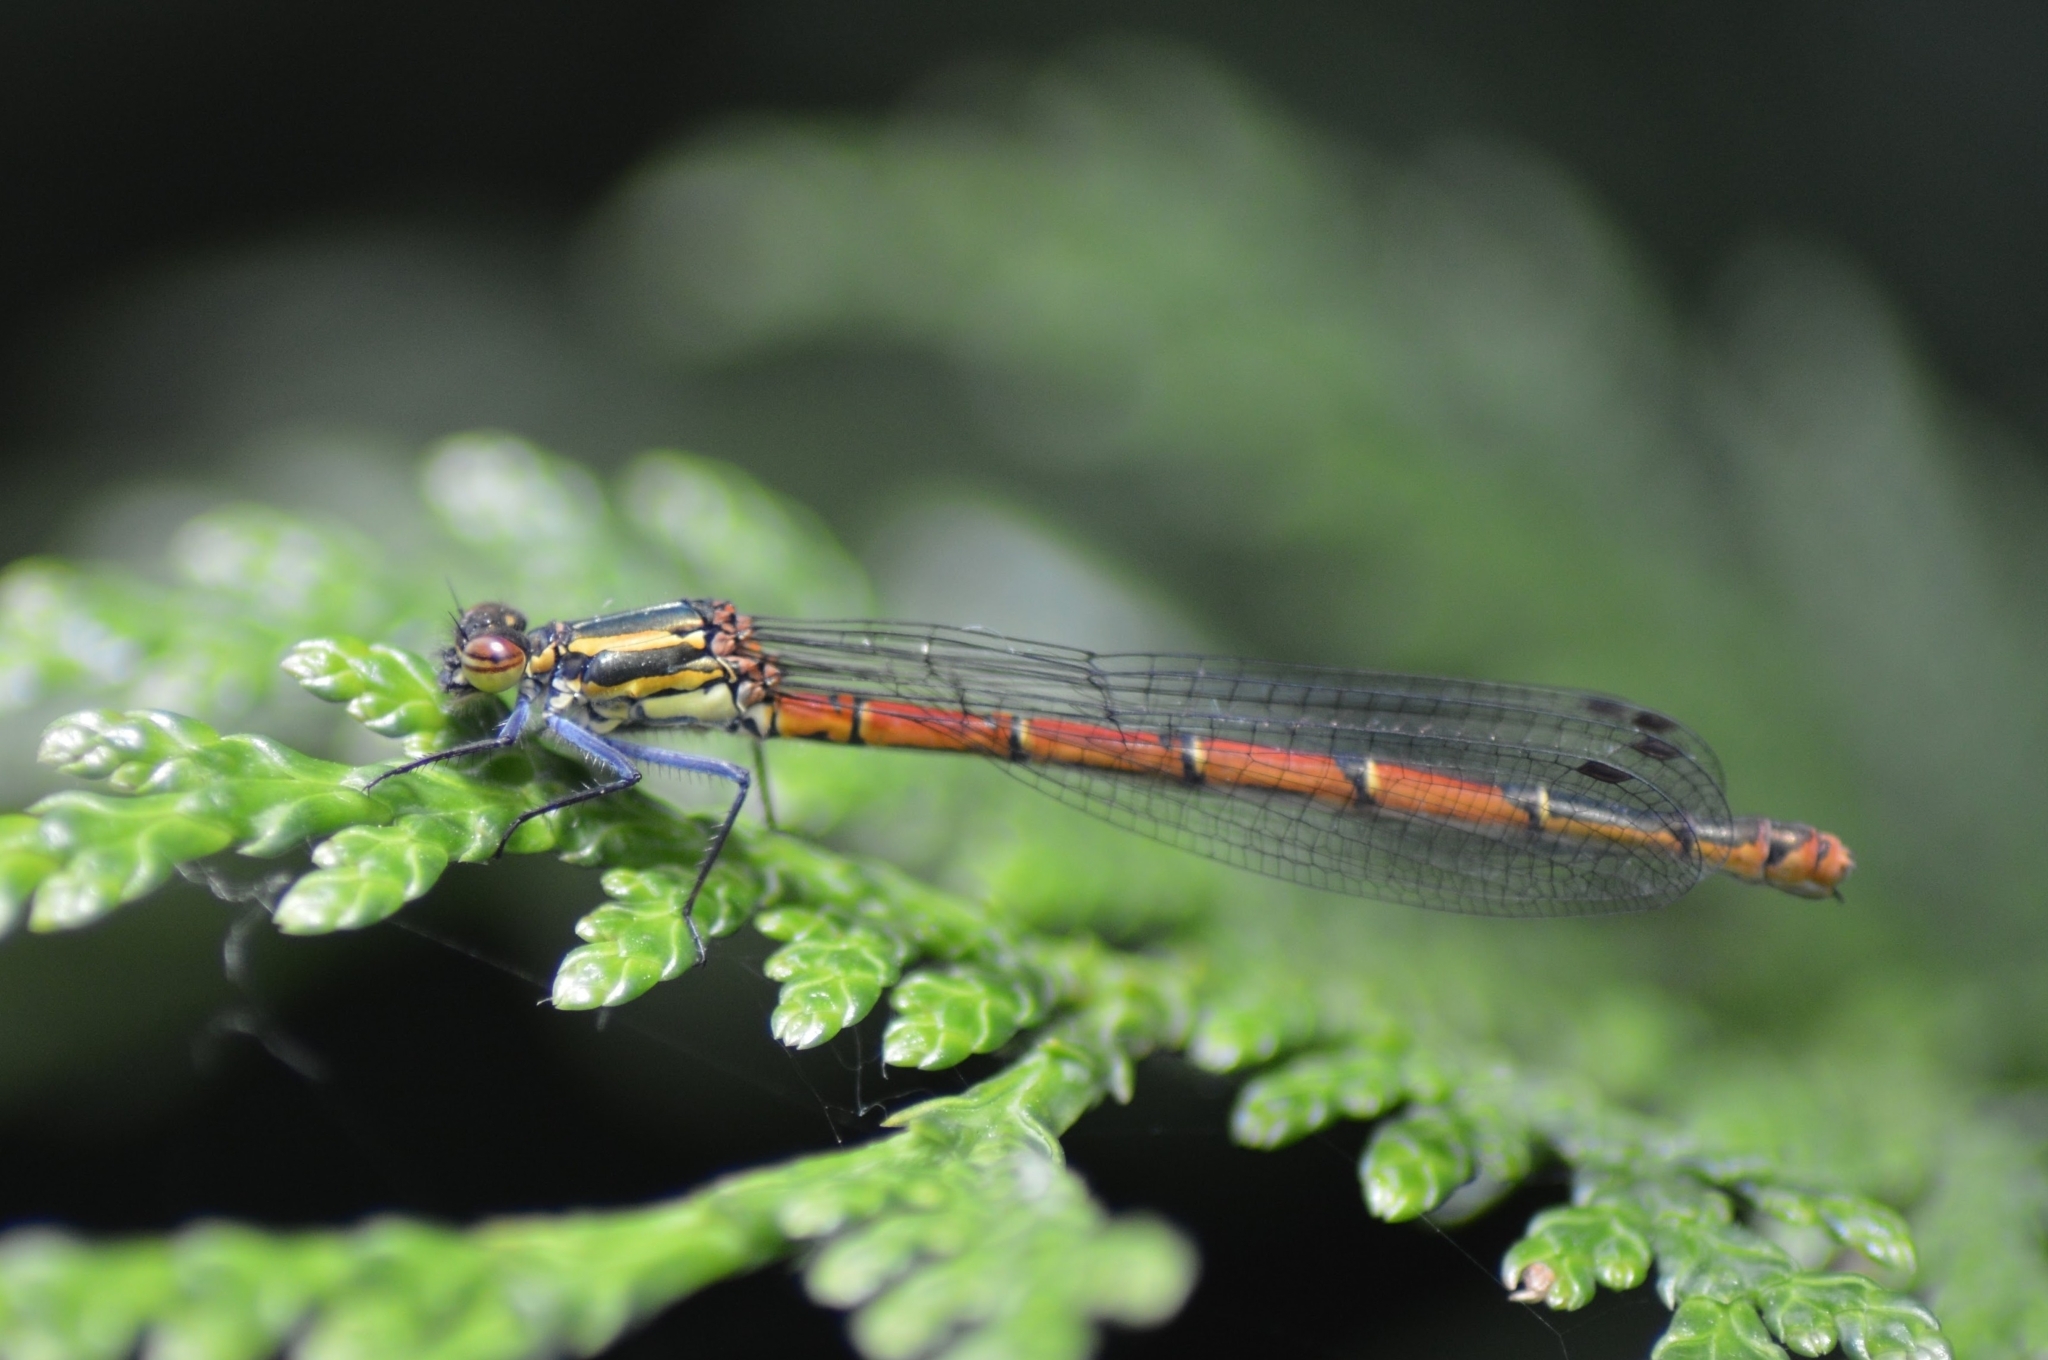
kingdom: Animalia
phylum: Arthropoda
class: Insecta
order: Odonata
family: Coenagrionidae
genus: Pyrrhosoma
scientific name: Pyrrhosoma nymphula
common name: Large red damsel
